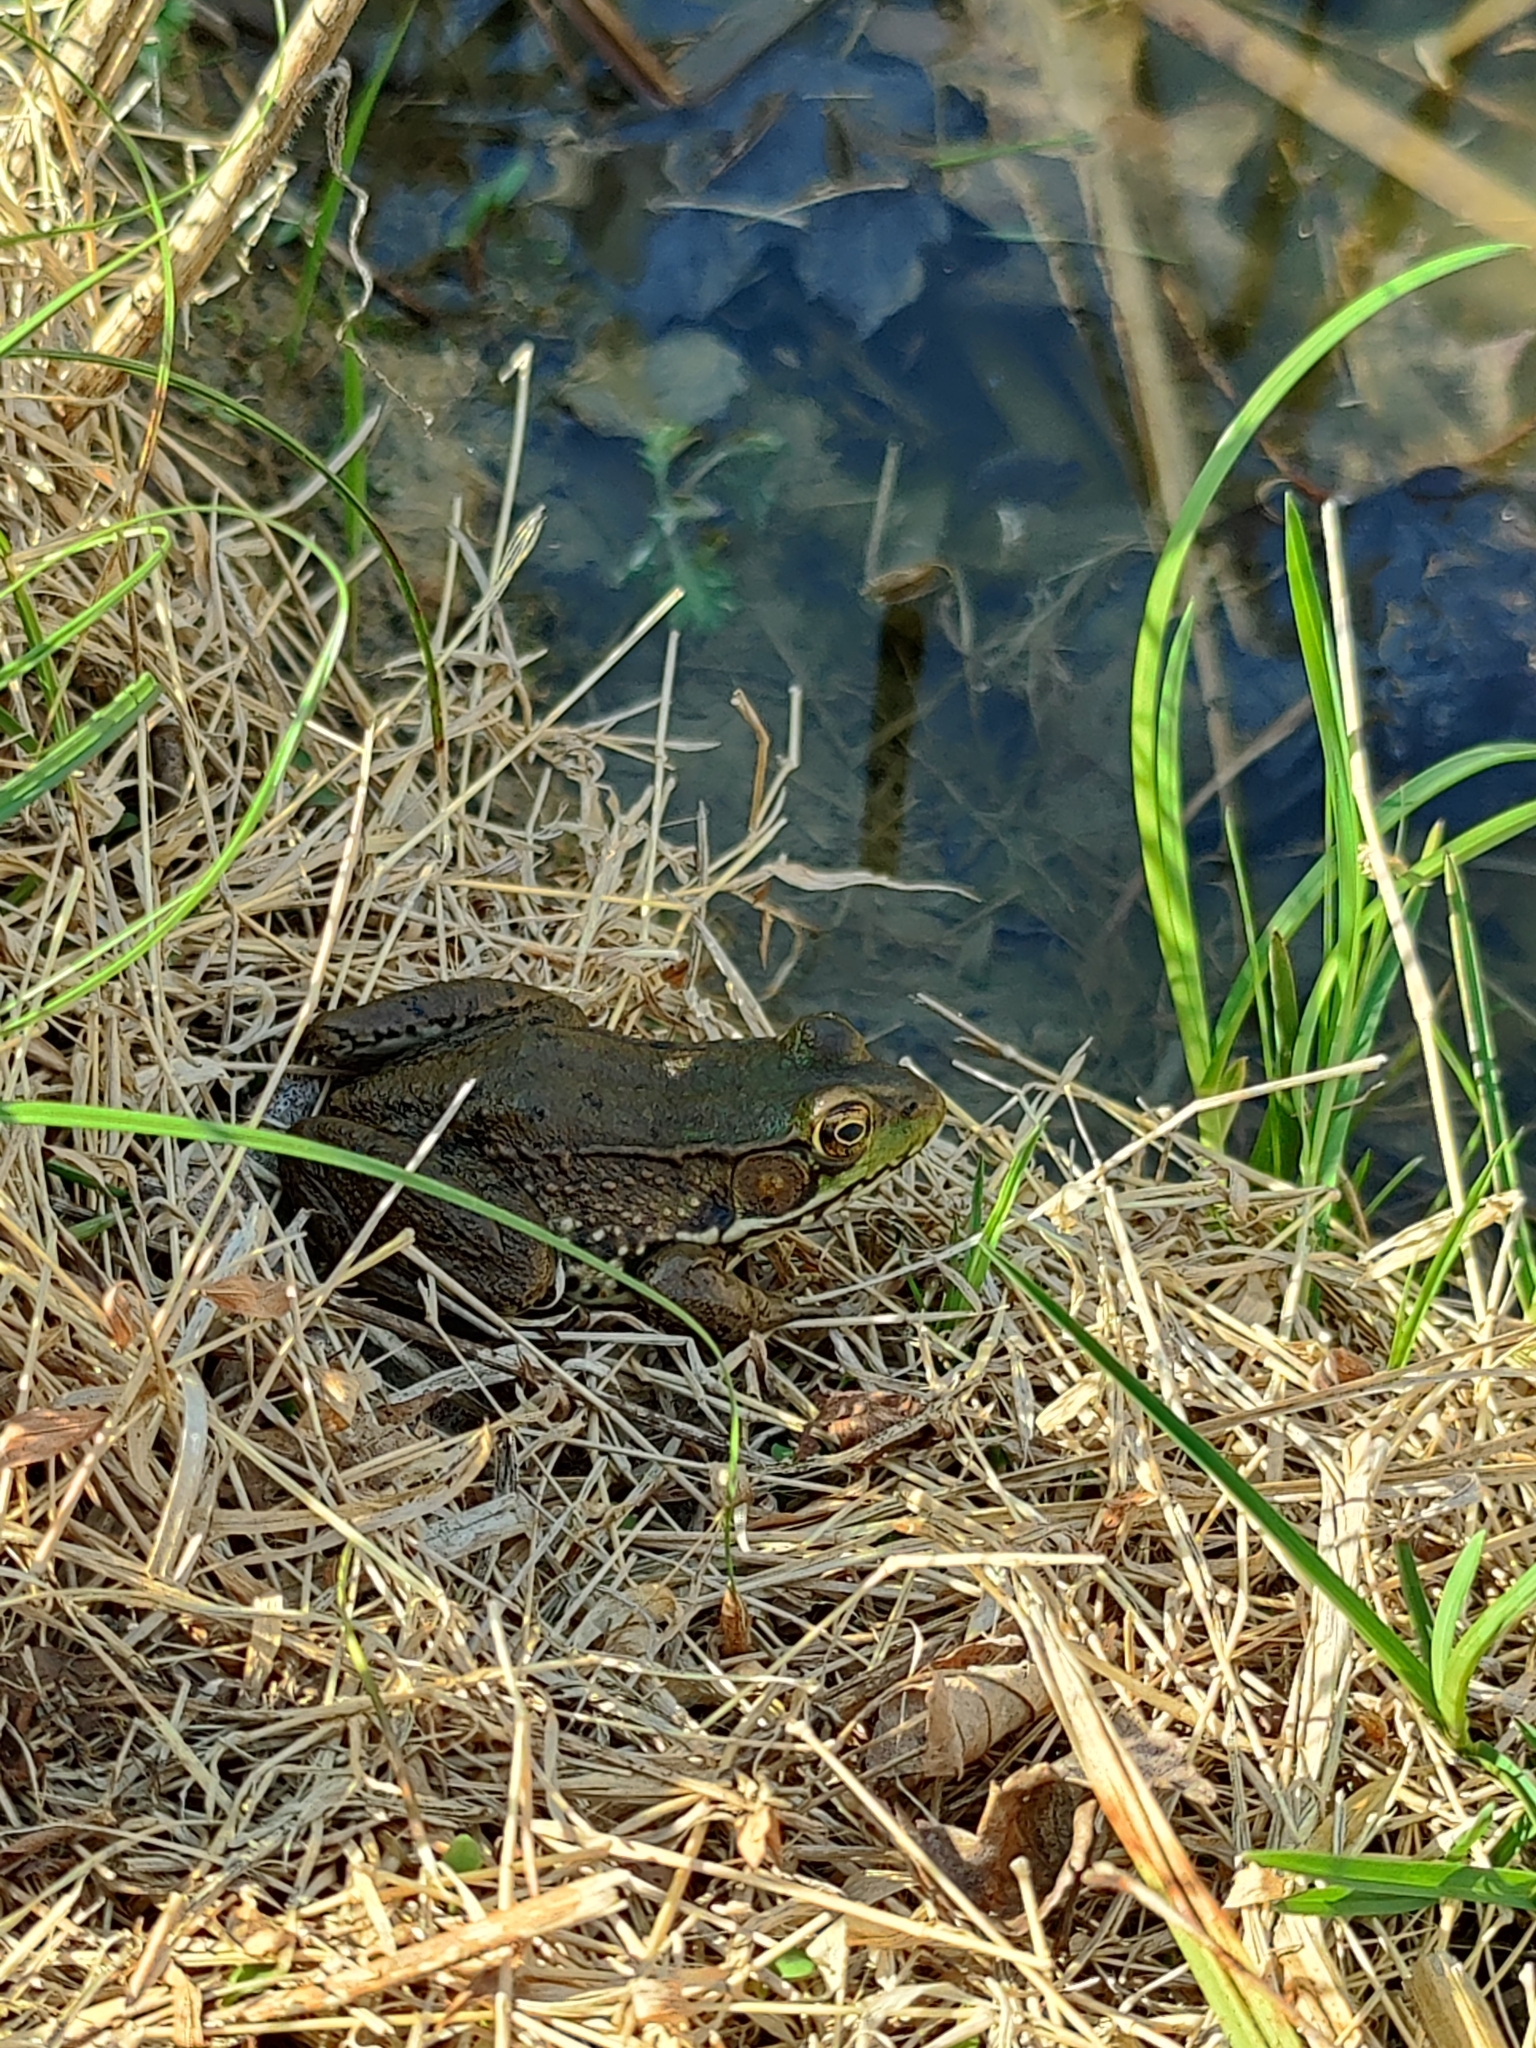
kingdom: Animalia
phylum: Chordata
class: Amphibia
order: Anura
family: Ranidae
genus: Lithobates
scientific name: Lithobates clamitans
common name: Green frog
